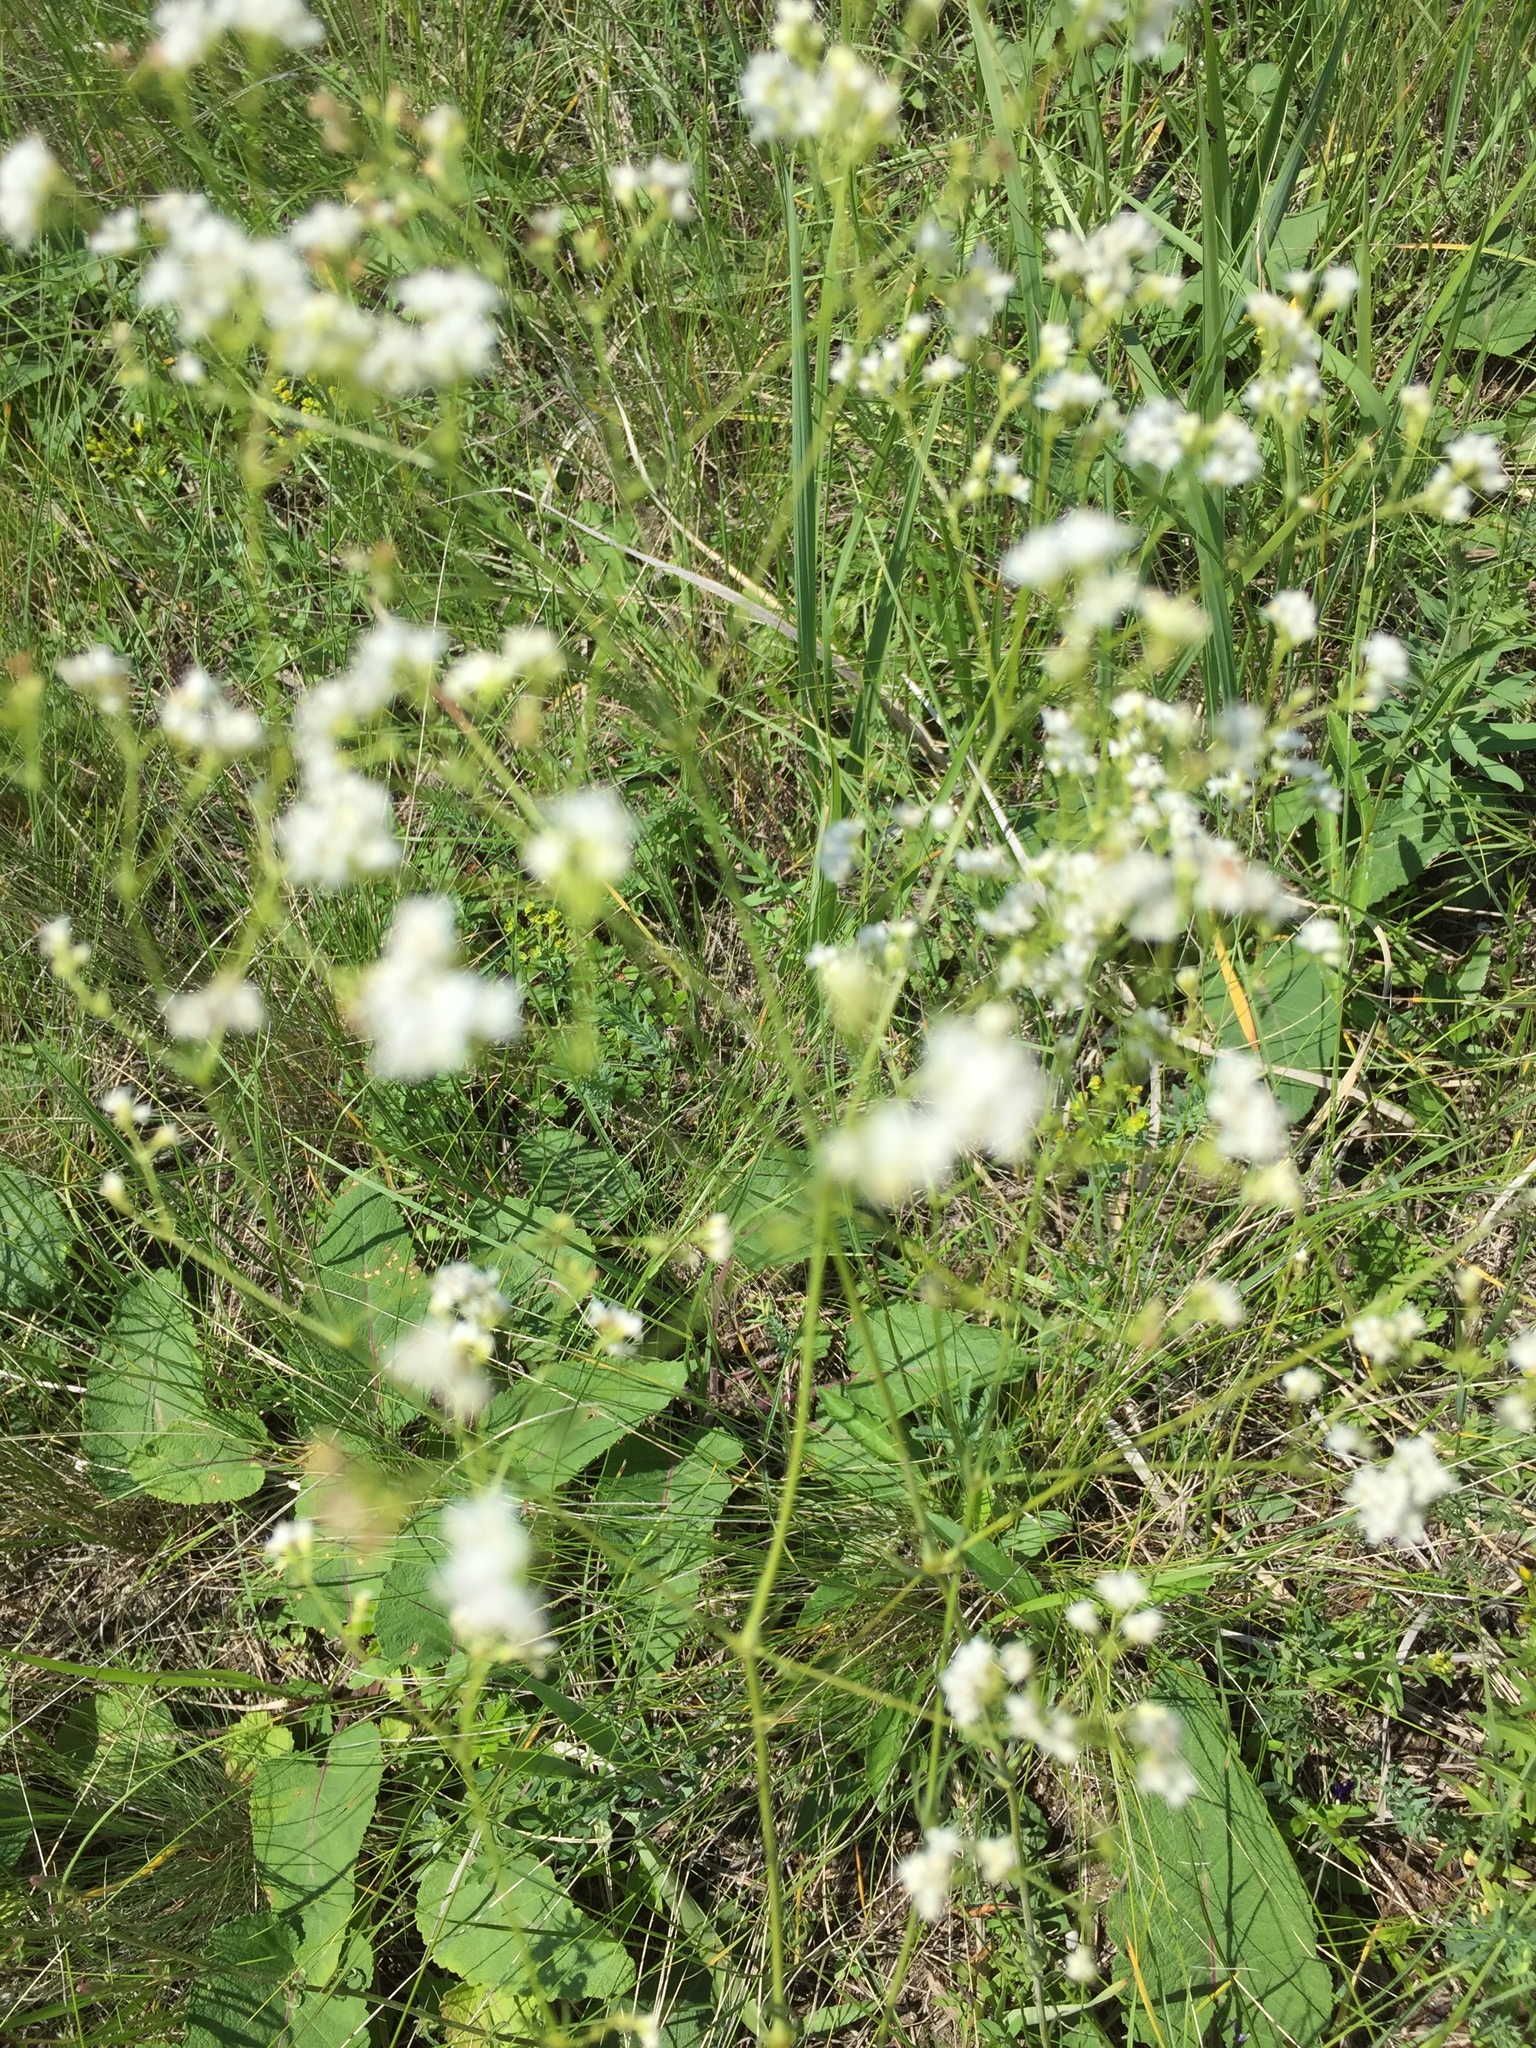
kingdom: Plantae
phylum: Tracheophyta
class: Magnoliopsida
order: Gentianales
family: Rubiaceae
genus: Asperula
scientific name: Asperula tinctoria
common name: Dyer's woodruff
